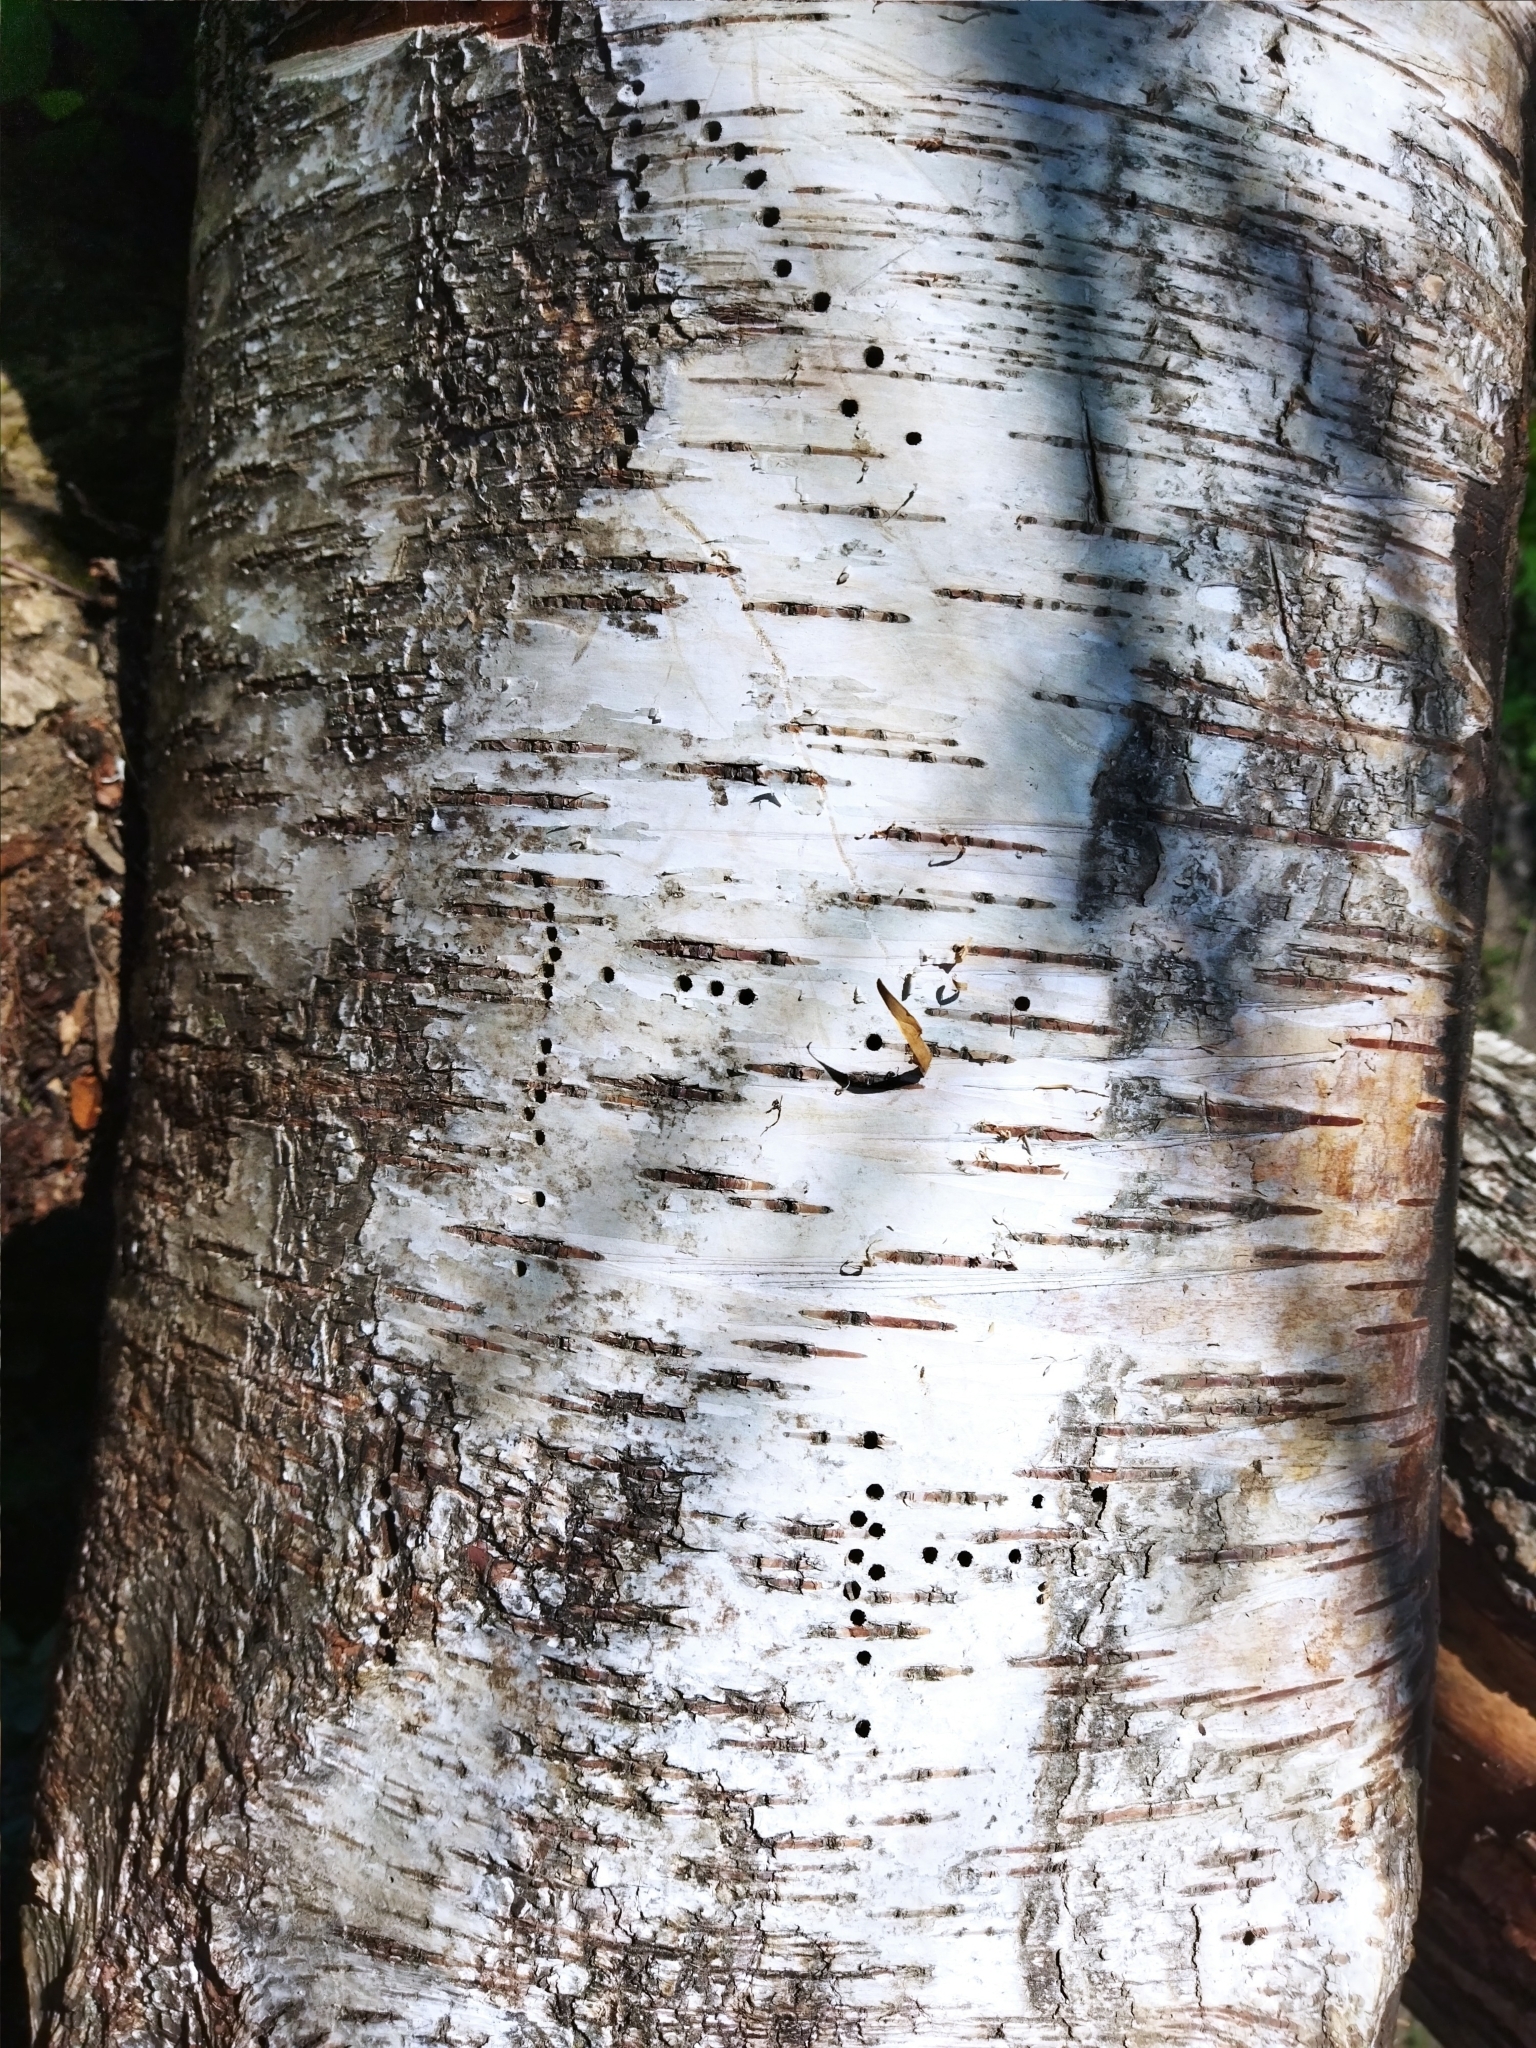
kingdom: Animalia
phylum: Arthropoda
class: Insecta
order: Coleoptera
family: Curculionidae
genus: Scolytus
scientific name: Scolytus ratzeburgii
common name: Birch bark beetle
